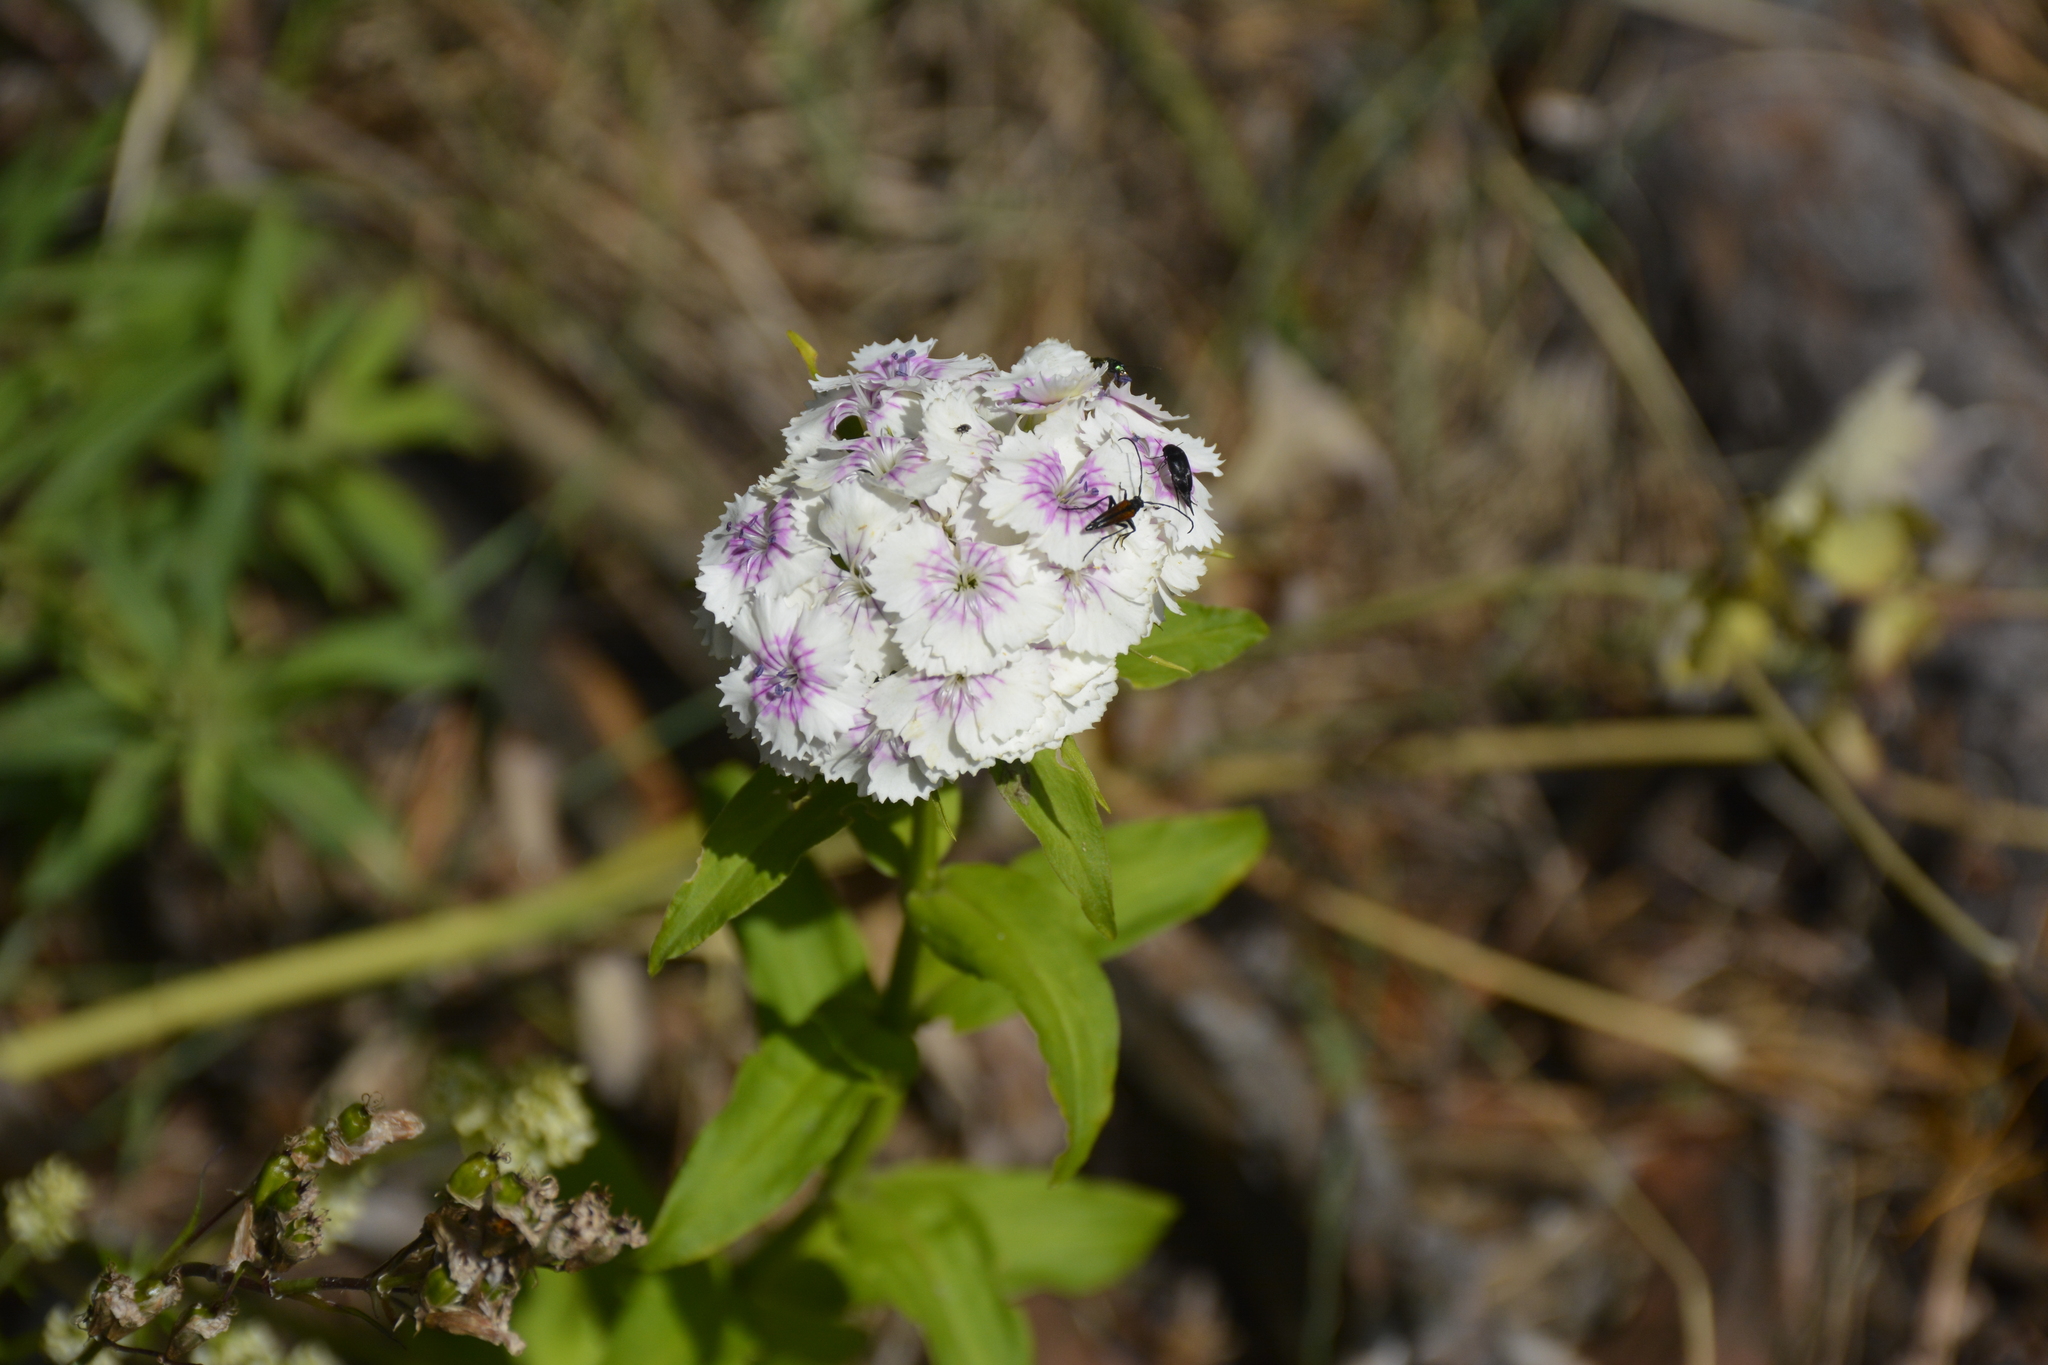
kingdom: Plantae
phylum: Tracheophyta
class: Magnoliopsida
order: Caryophyllales
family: Caryophyllaceae
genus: Dianthus
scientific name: Dianthus barbatus
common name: Sweet-william
